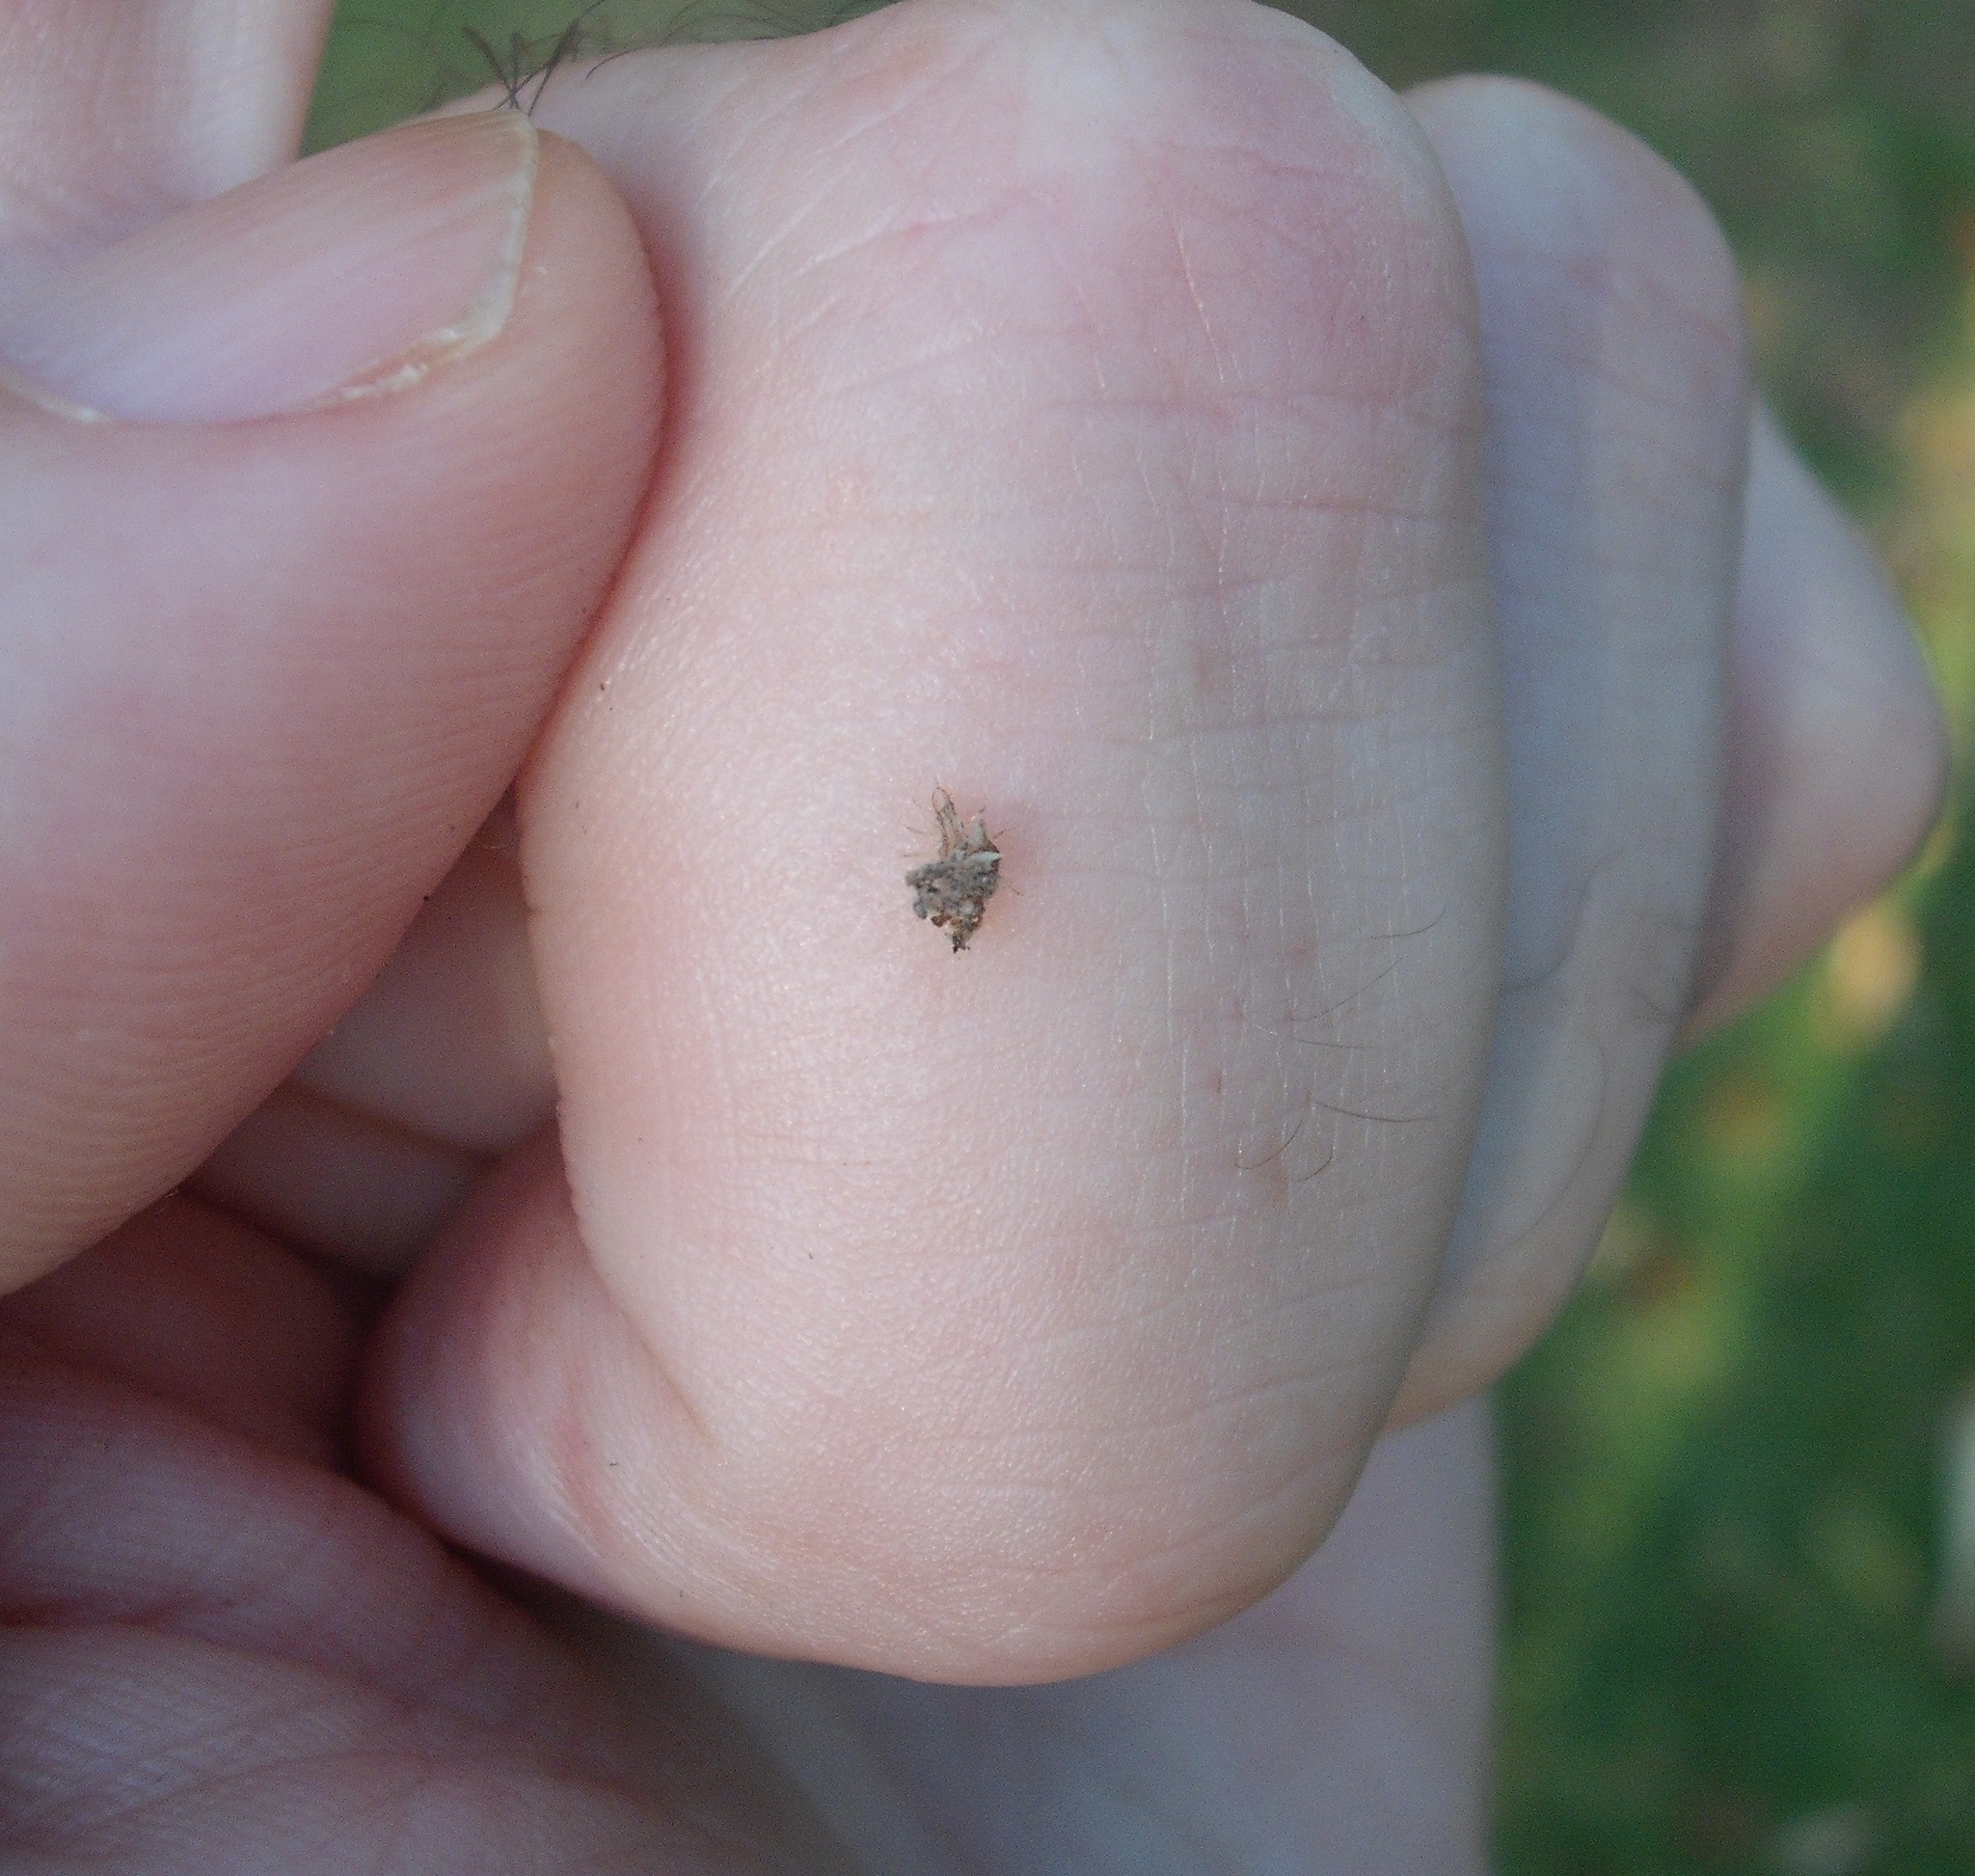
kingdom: Animalia
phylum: Arthropoda
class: Insecta
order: Neuroptera
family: Chrysopidae
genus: Mallada
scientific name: Mallada basalis
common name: Green lacewing
